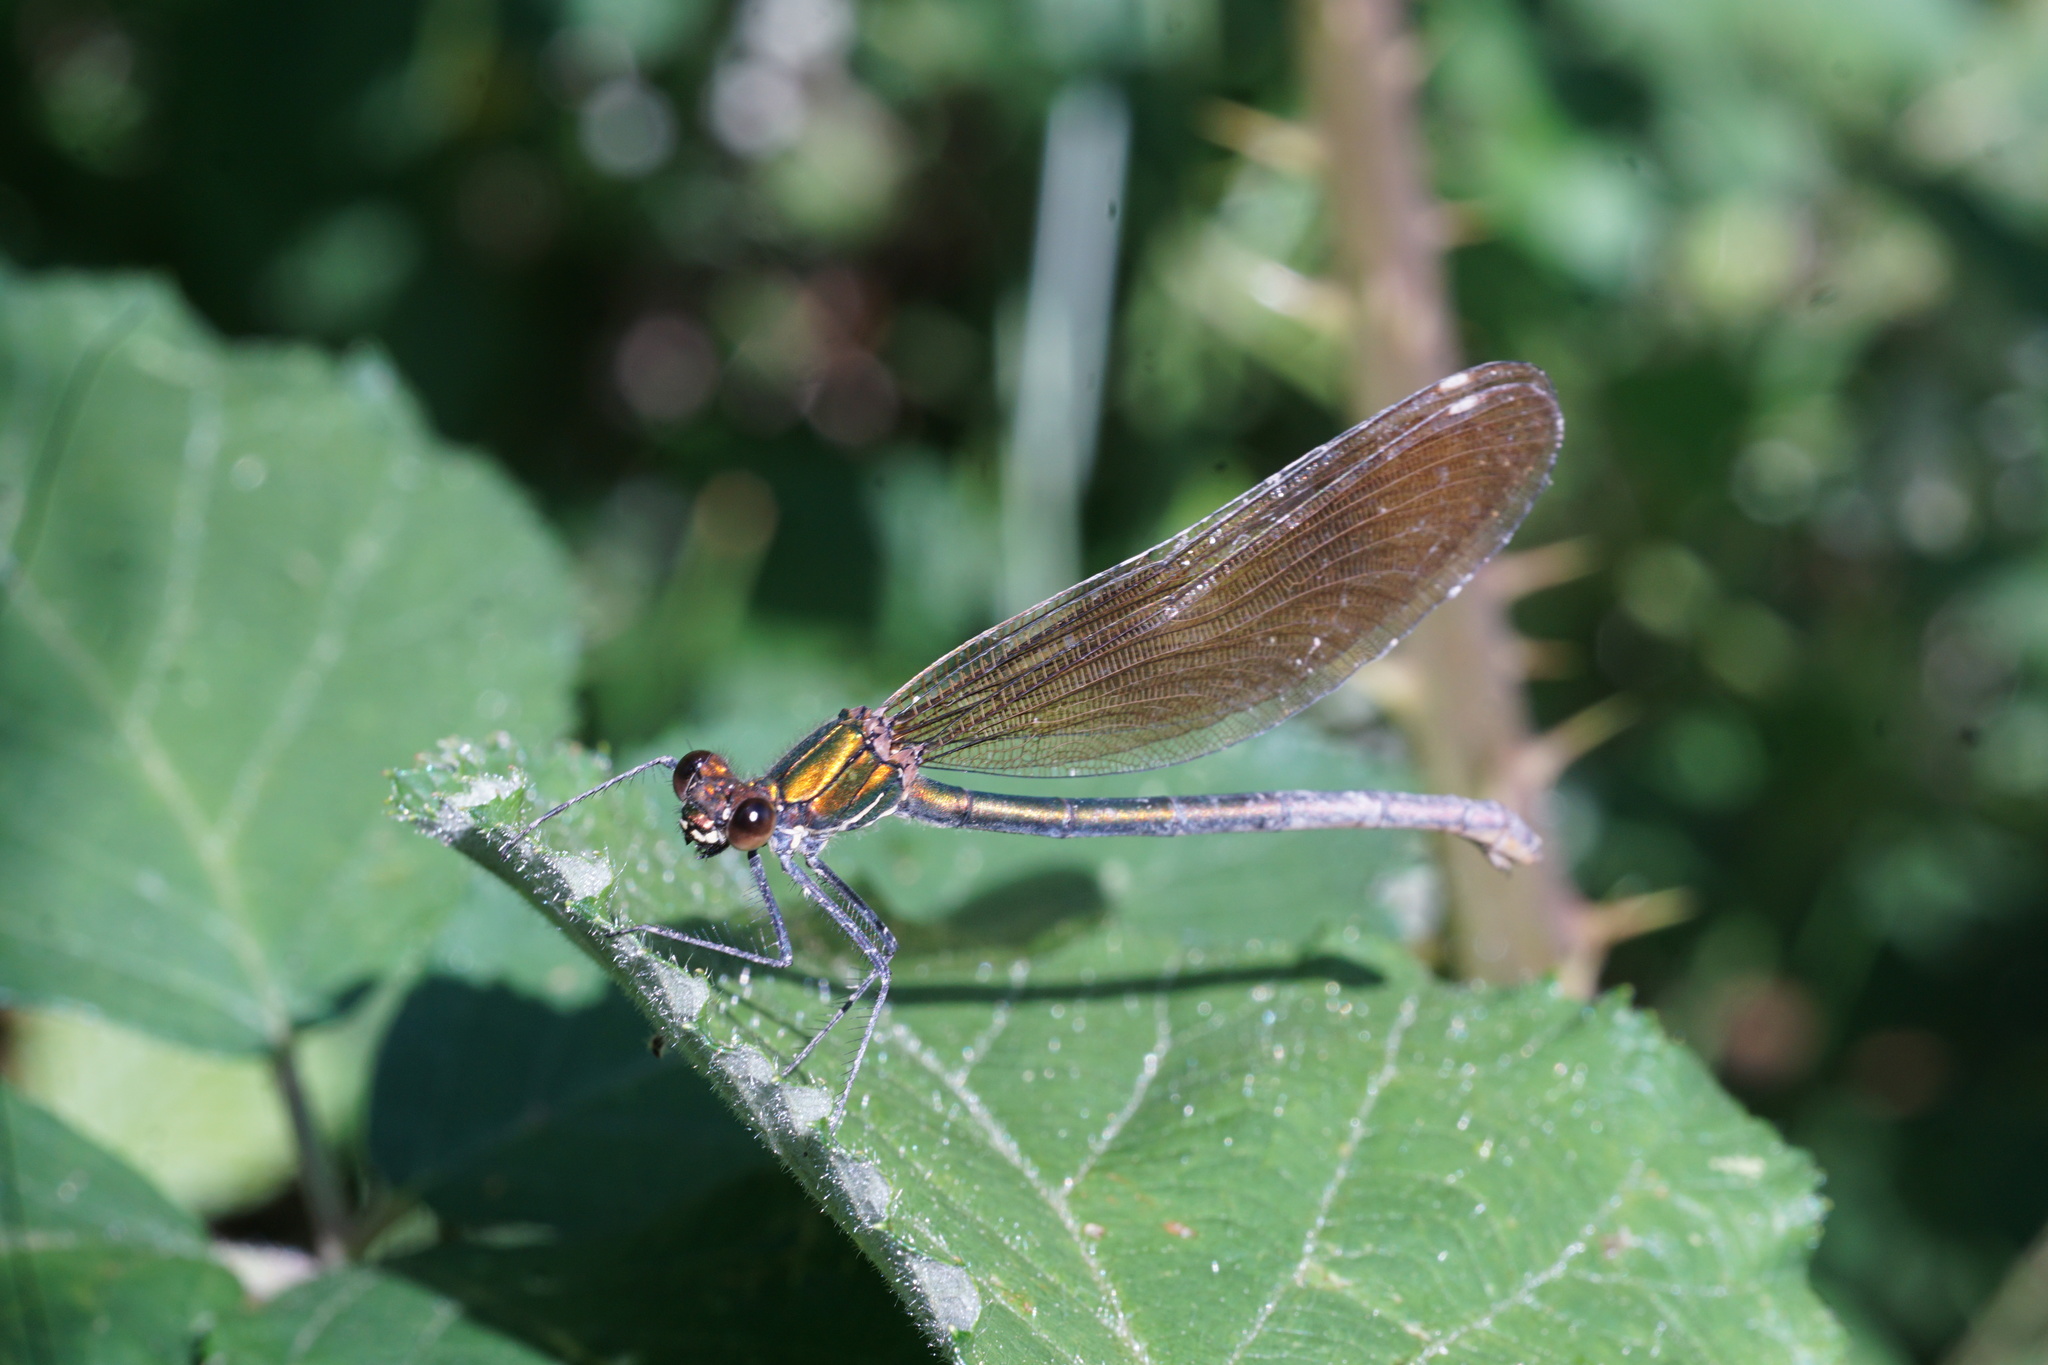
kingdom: Animalia
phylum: Arthropoda
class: Insecta
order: Odonata
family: Calopterygidae
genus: Calopteryx
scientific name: Calopteryx virgo
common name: Beautiful demoiselle
